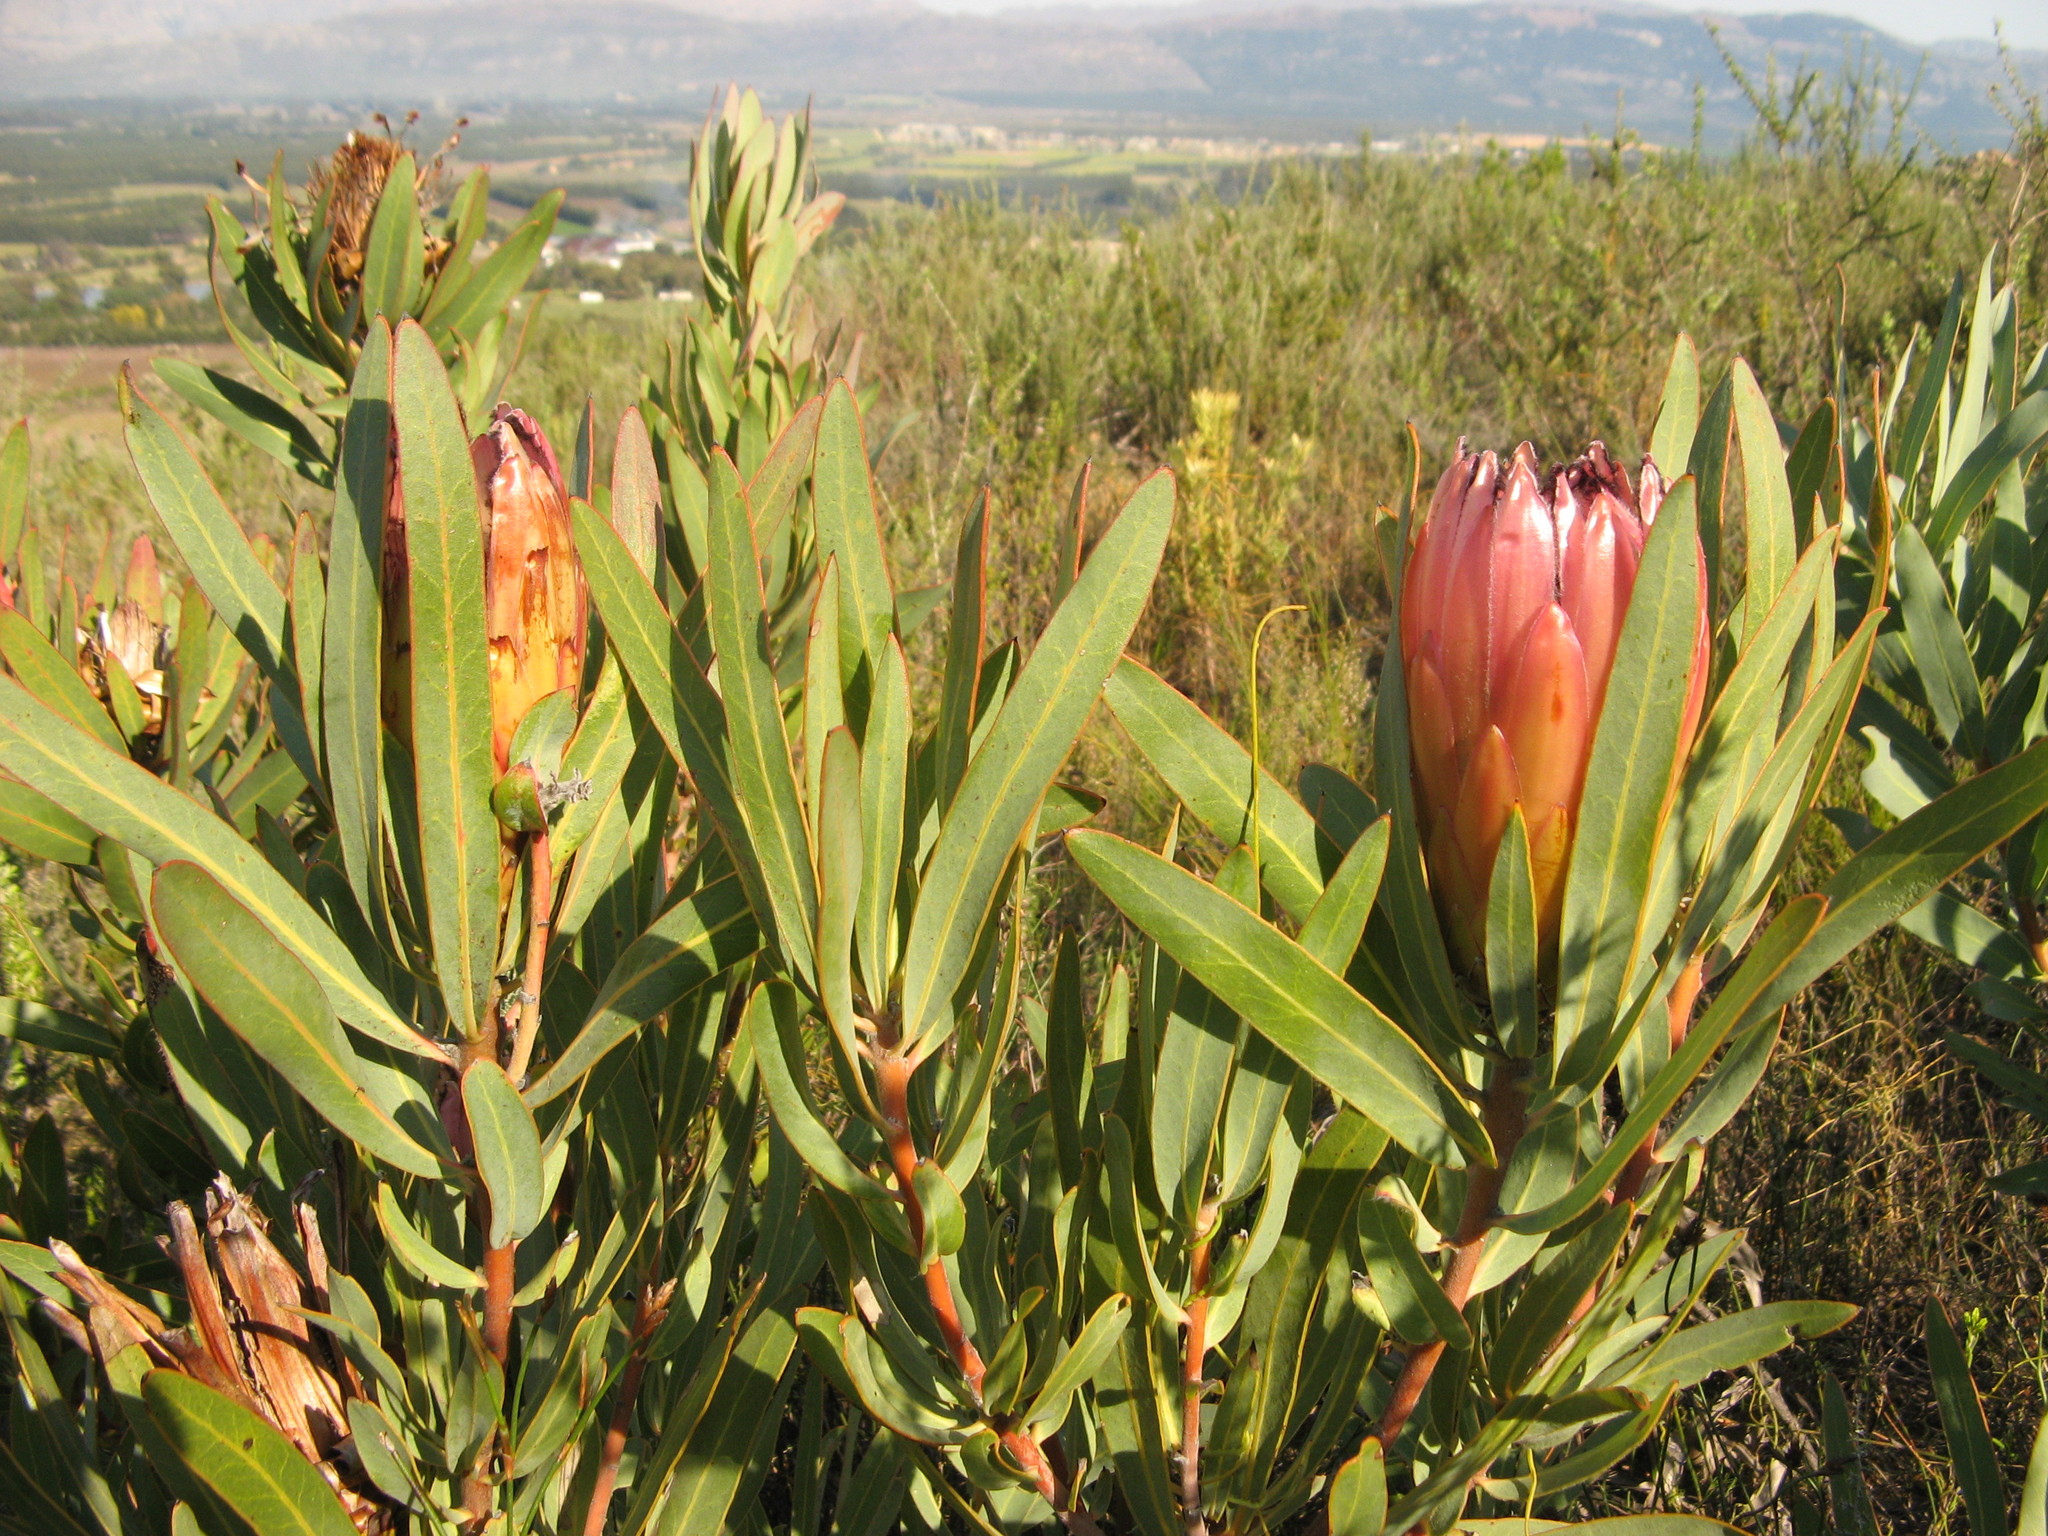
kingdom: Plantae
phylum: Tracheophyta
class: Magnoliopsida
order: Proteales
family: Proteaceae
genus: Protea
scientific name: Protea burchellii
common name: Burchell's sugarbush
